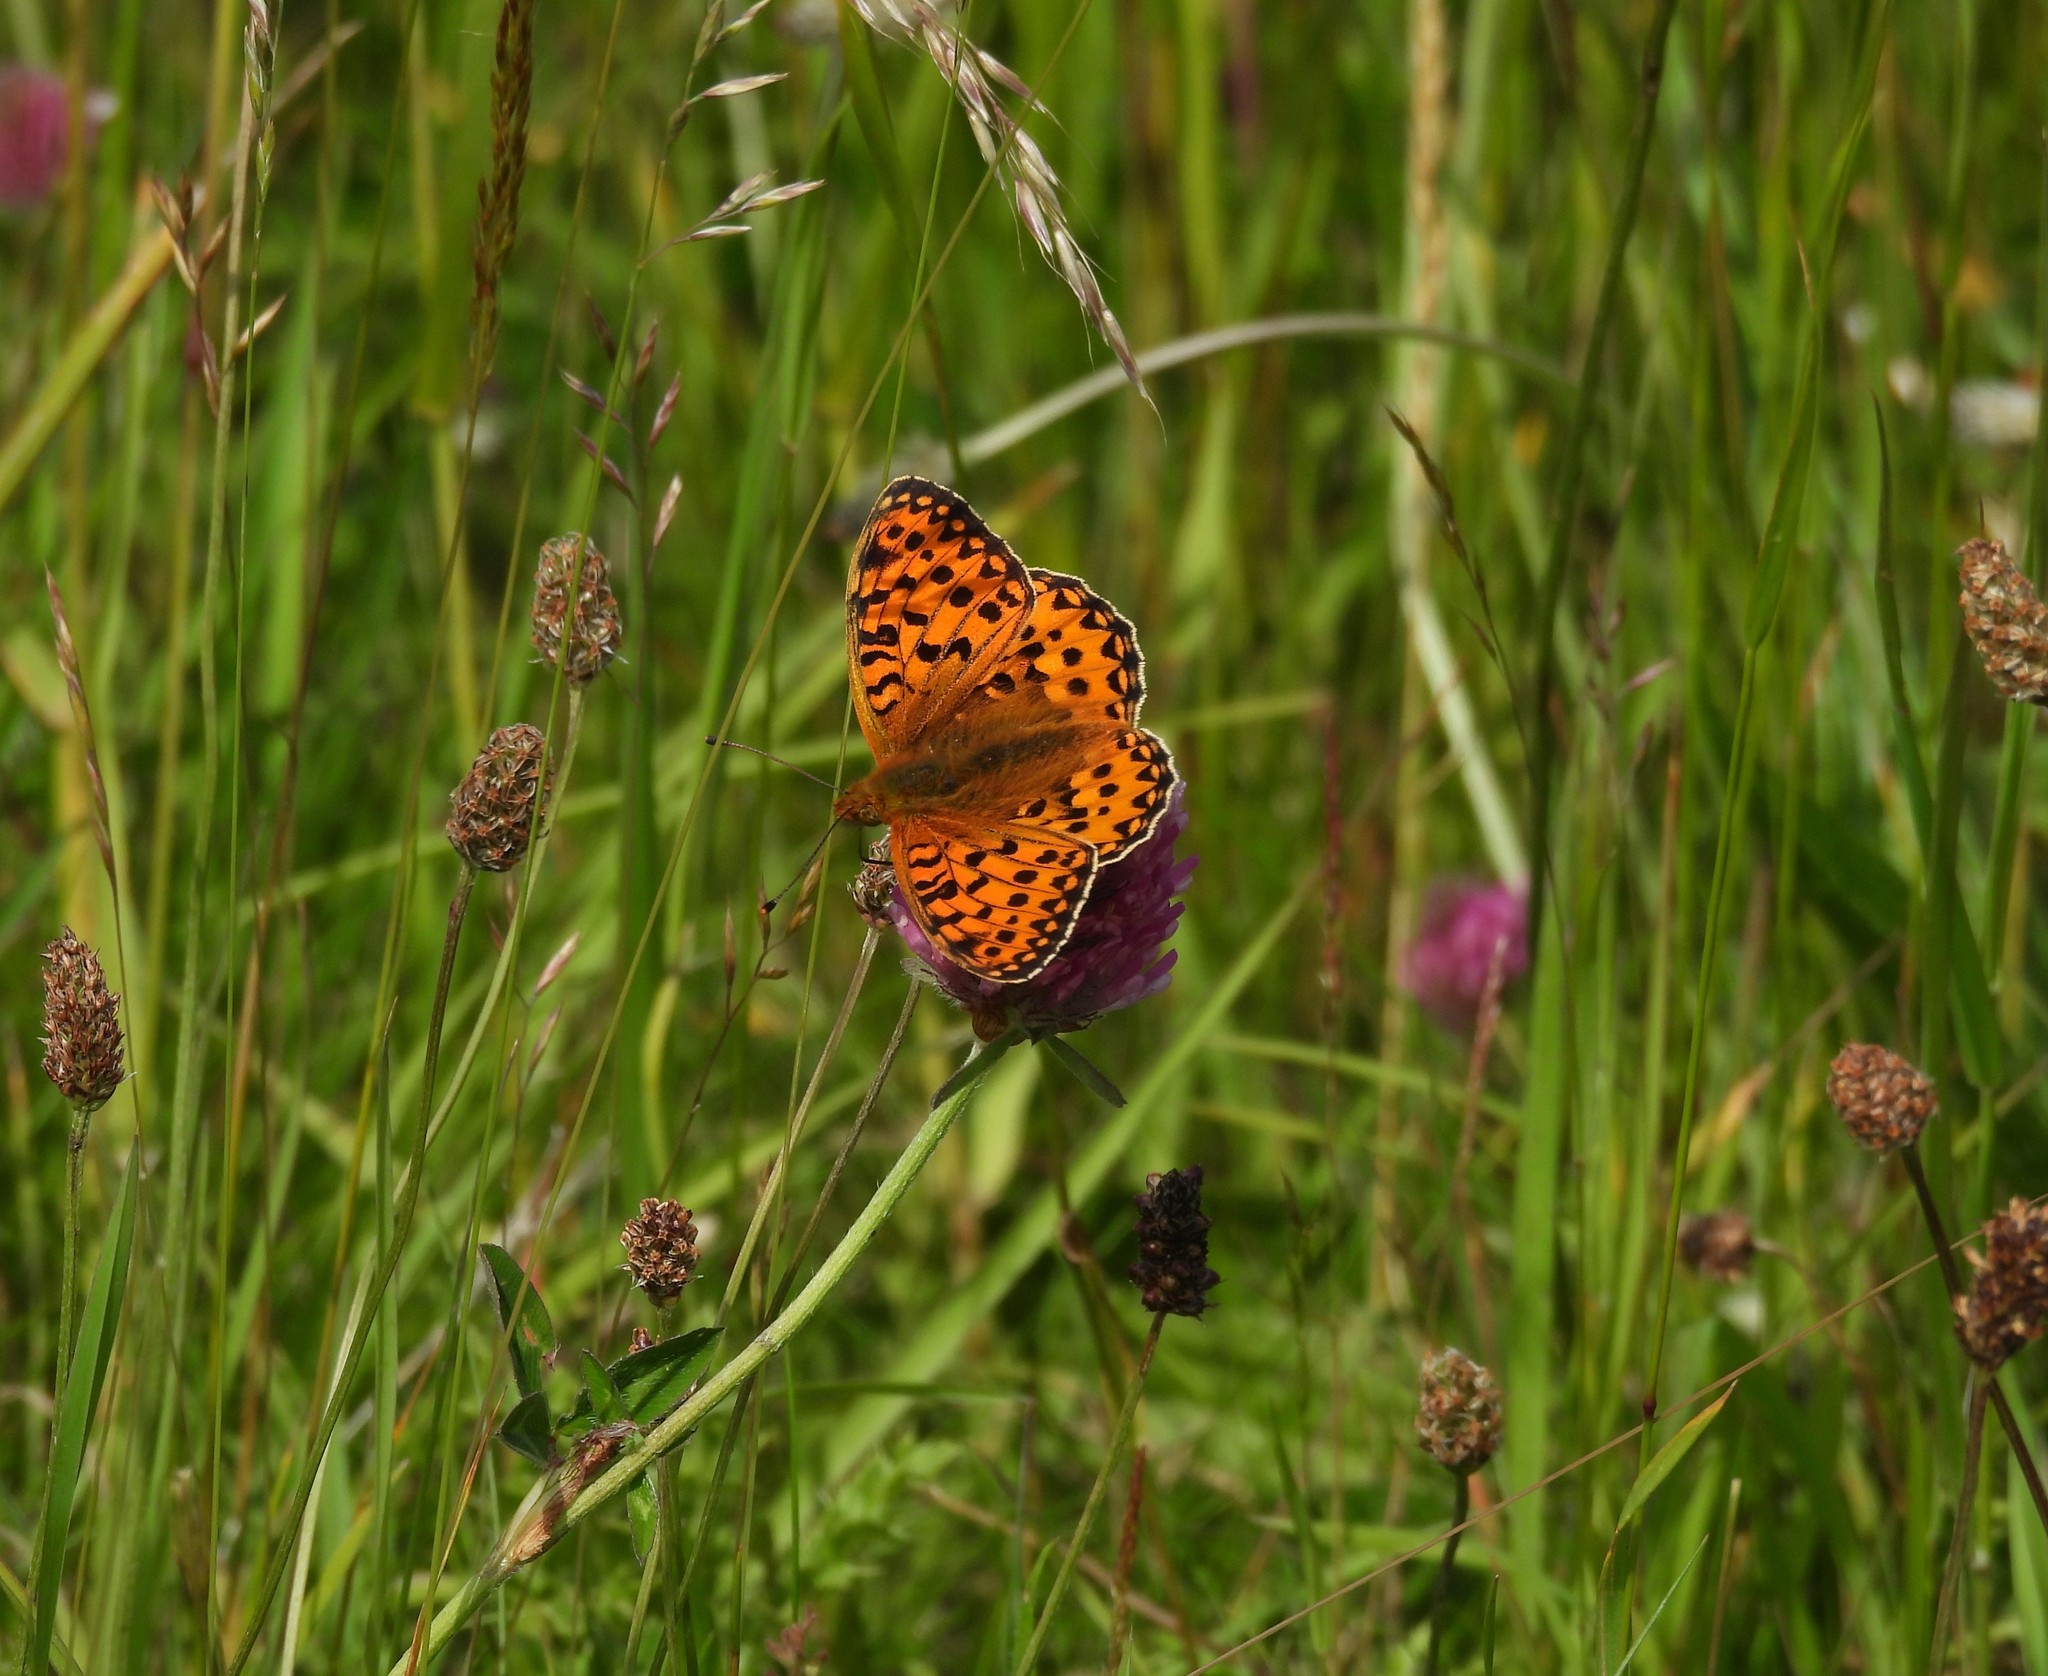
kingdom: Animalia
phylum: Arthropoda
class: Insecta
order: Lepidoptera
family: Nymphalidae
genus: Speyeria
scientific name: Speyeria aglaja
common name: Dark green fritillary
